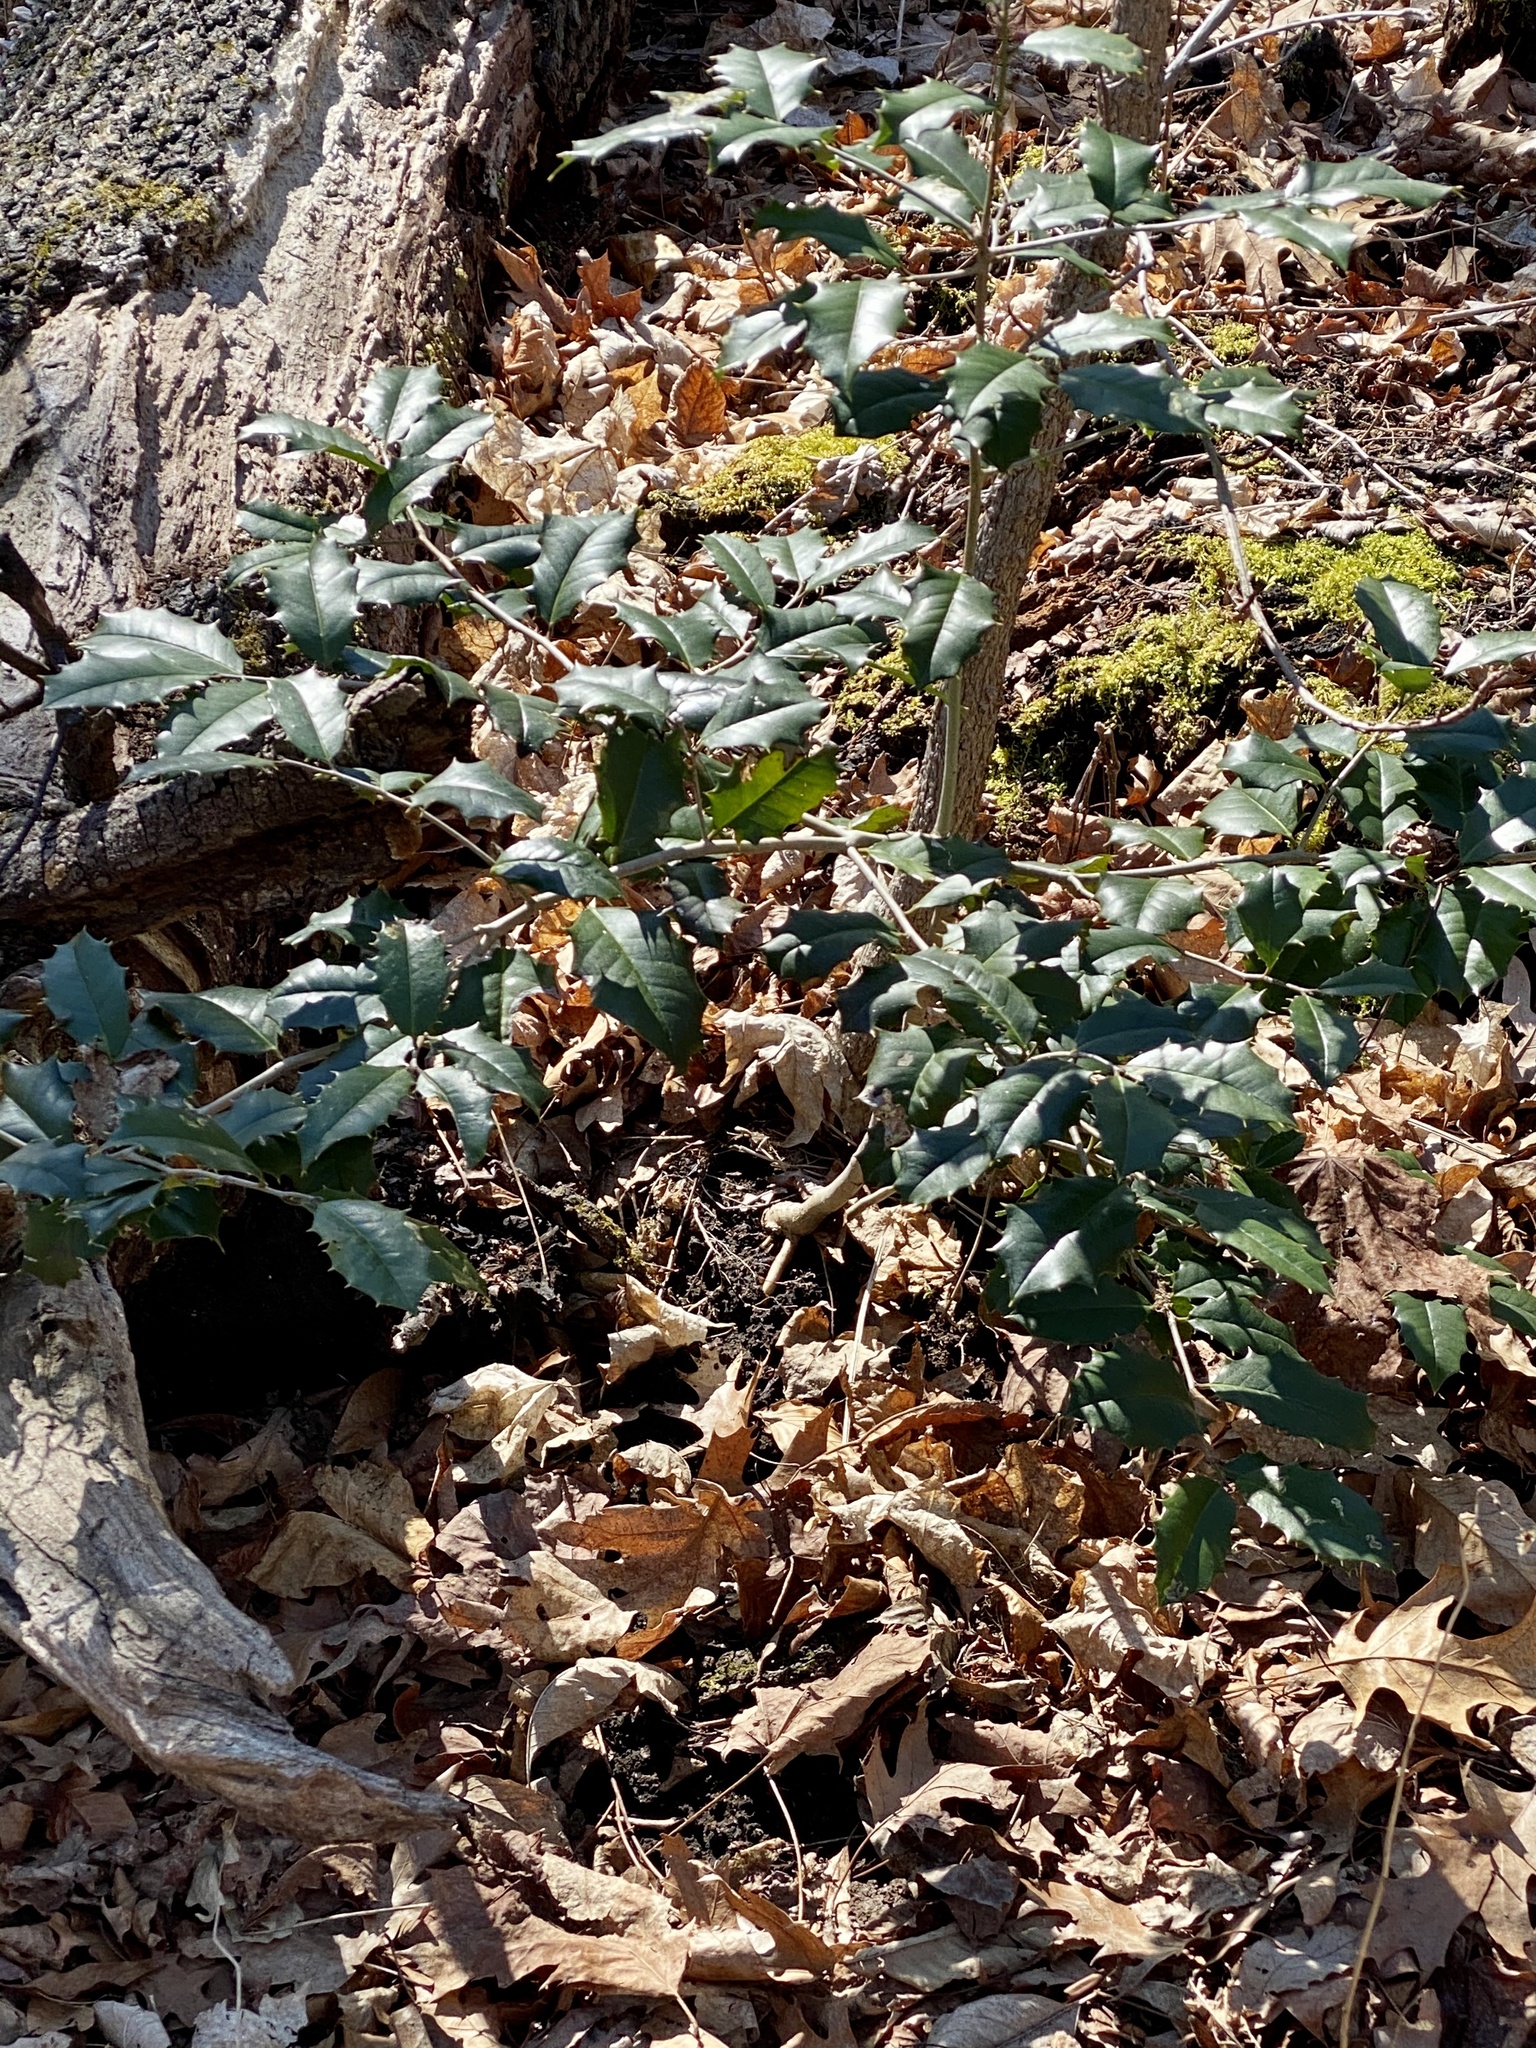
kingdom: Plantae
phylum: Tracheophyta
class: Magnoliopsida
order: Aquifoliales
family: Aquifoliaceae
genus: Ilex
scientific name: Ilex opaca
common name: American holly
